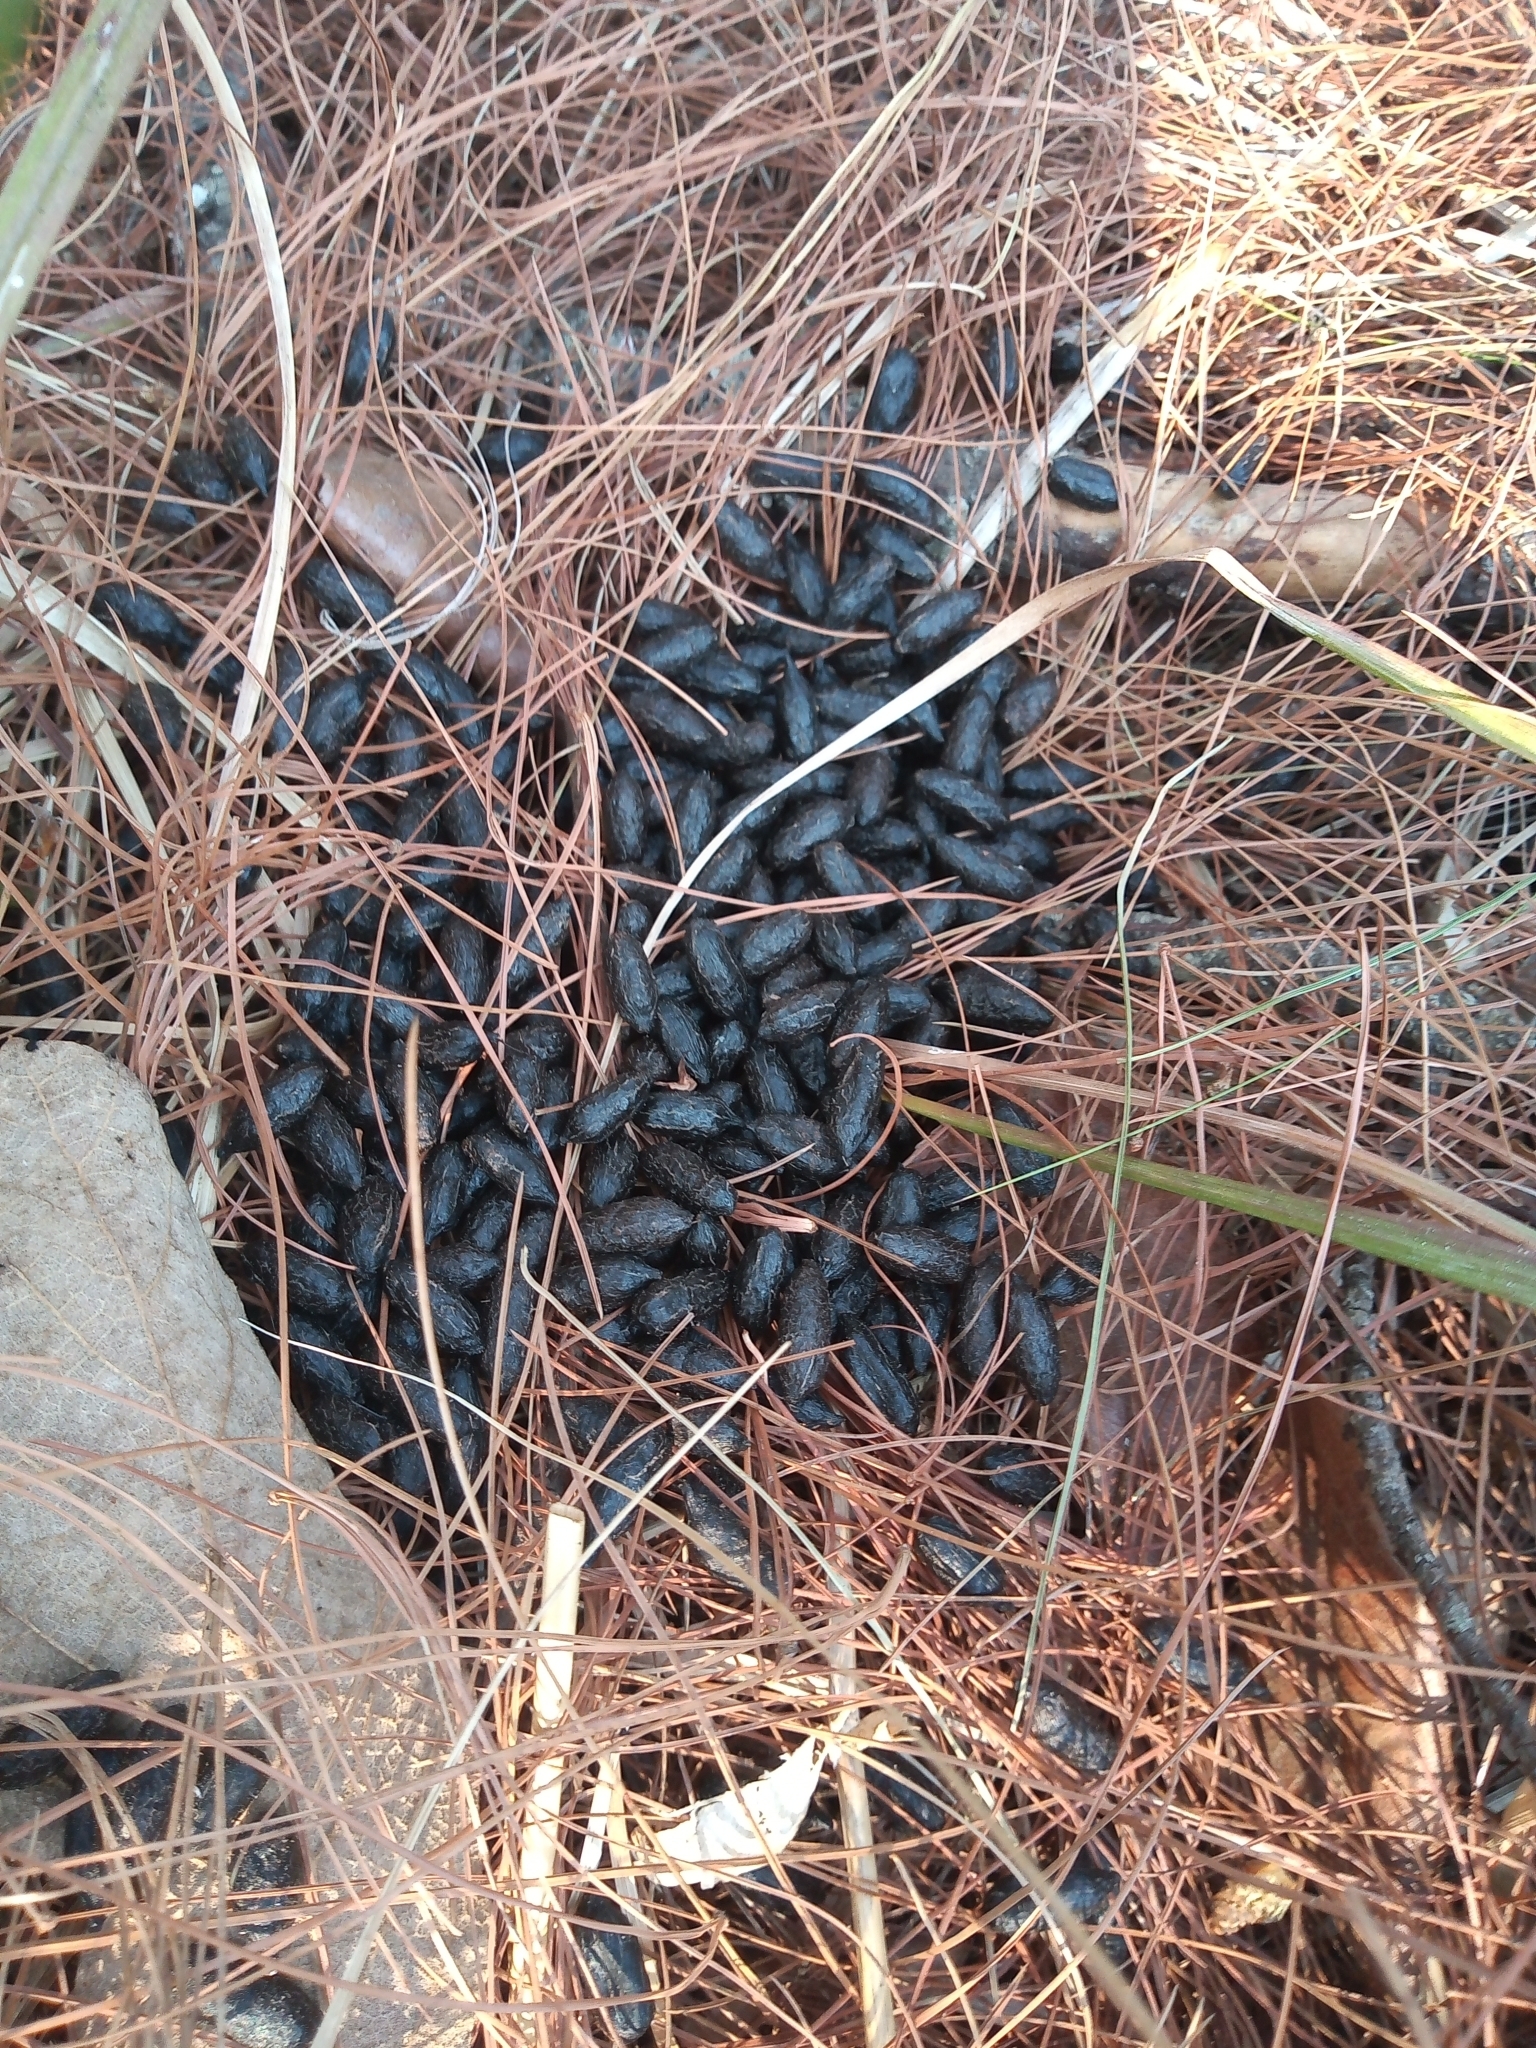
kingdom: Animalia
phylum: Chordata
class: Mammalia
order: Artiodactyla
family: Cervidae
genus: Odocoileus
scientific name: Odocoileus virginianus
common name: White-tailed deer
